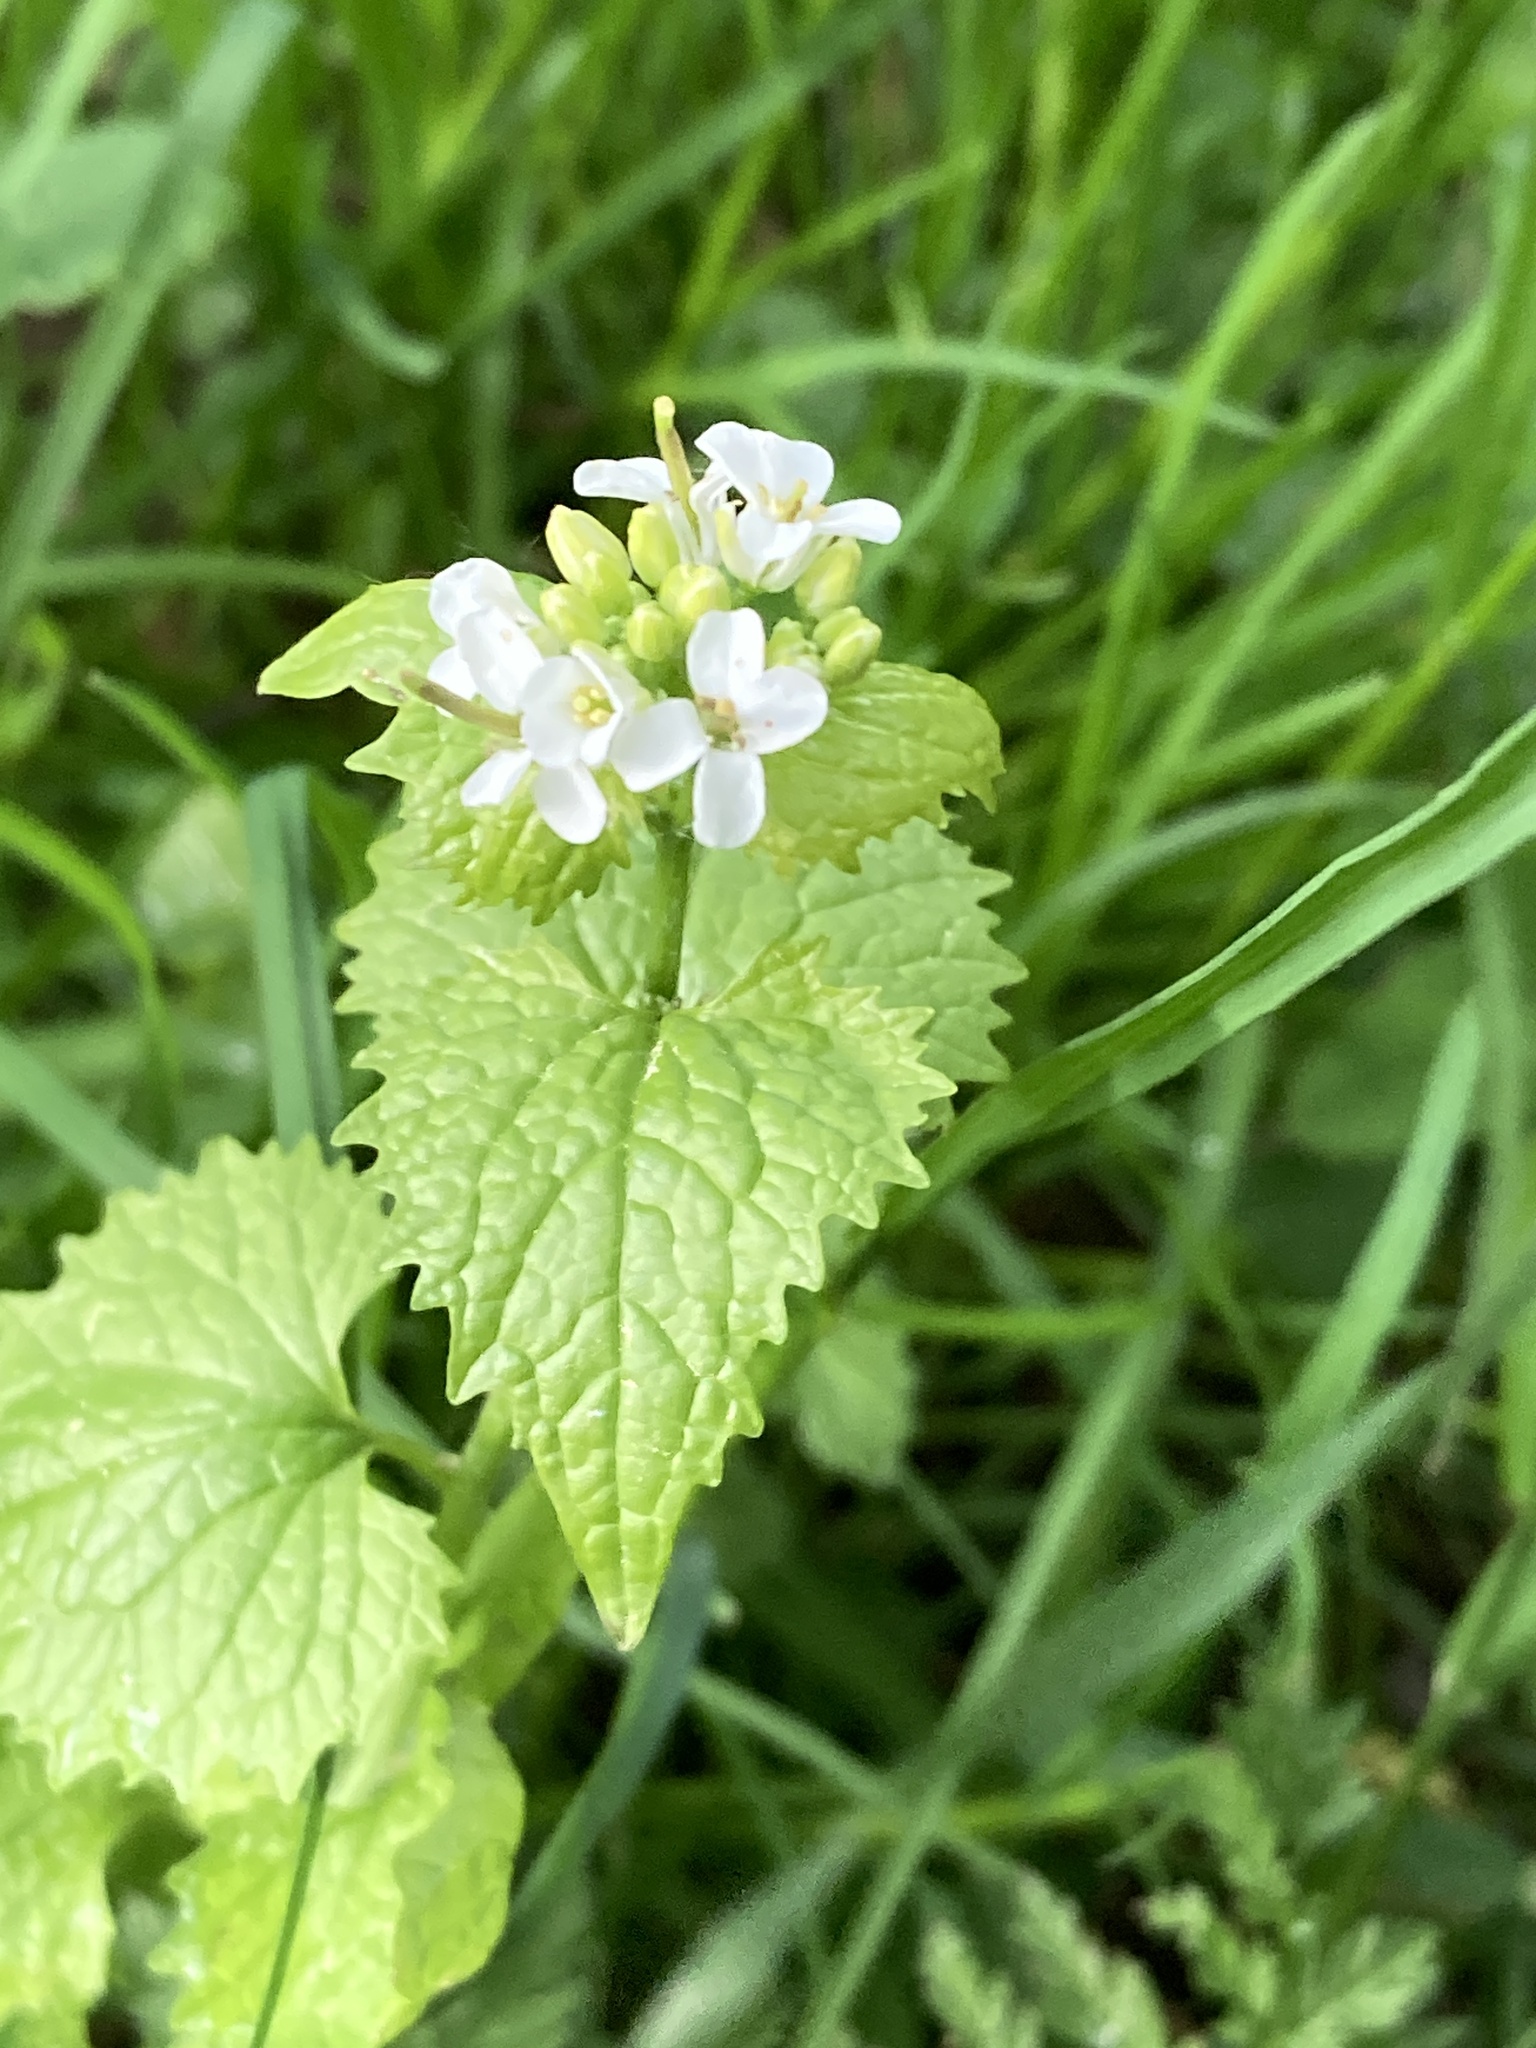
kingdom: Plantae
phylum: Tracheophyta
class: Magnoliopsida
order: Brassicales
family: Brassicaceae
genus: Alliaria
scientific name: Alliaria petiolata
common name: Garlic mustard
